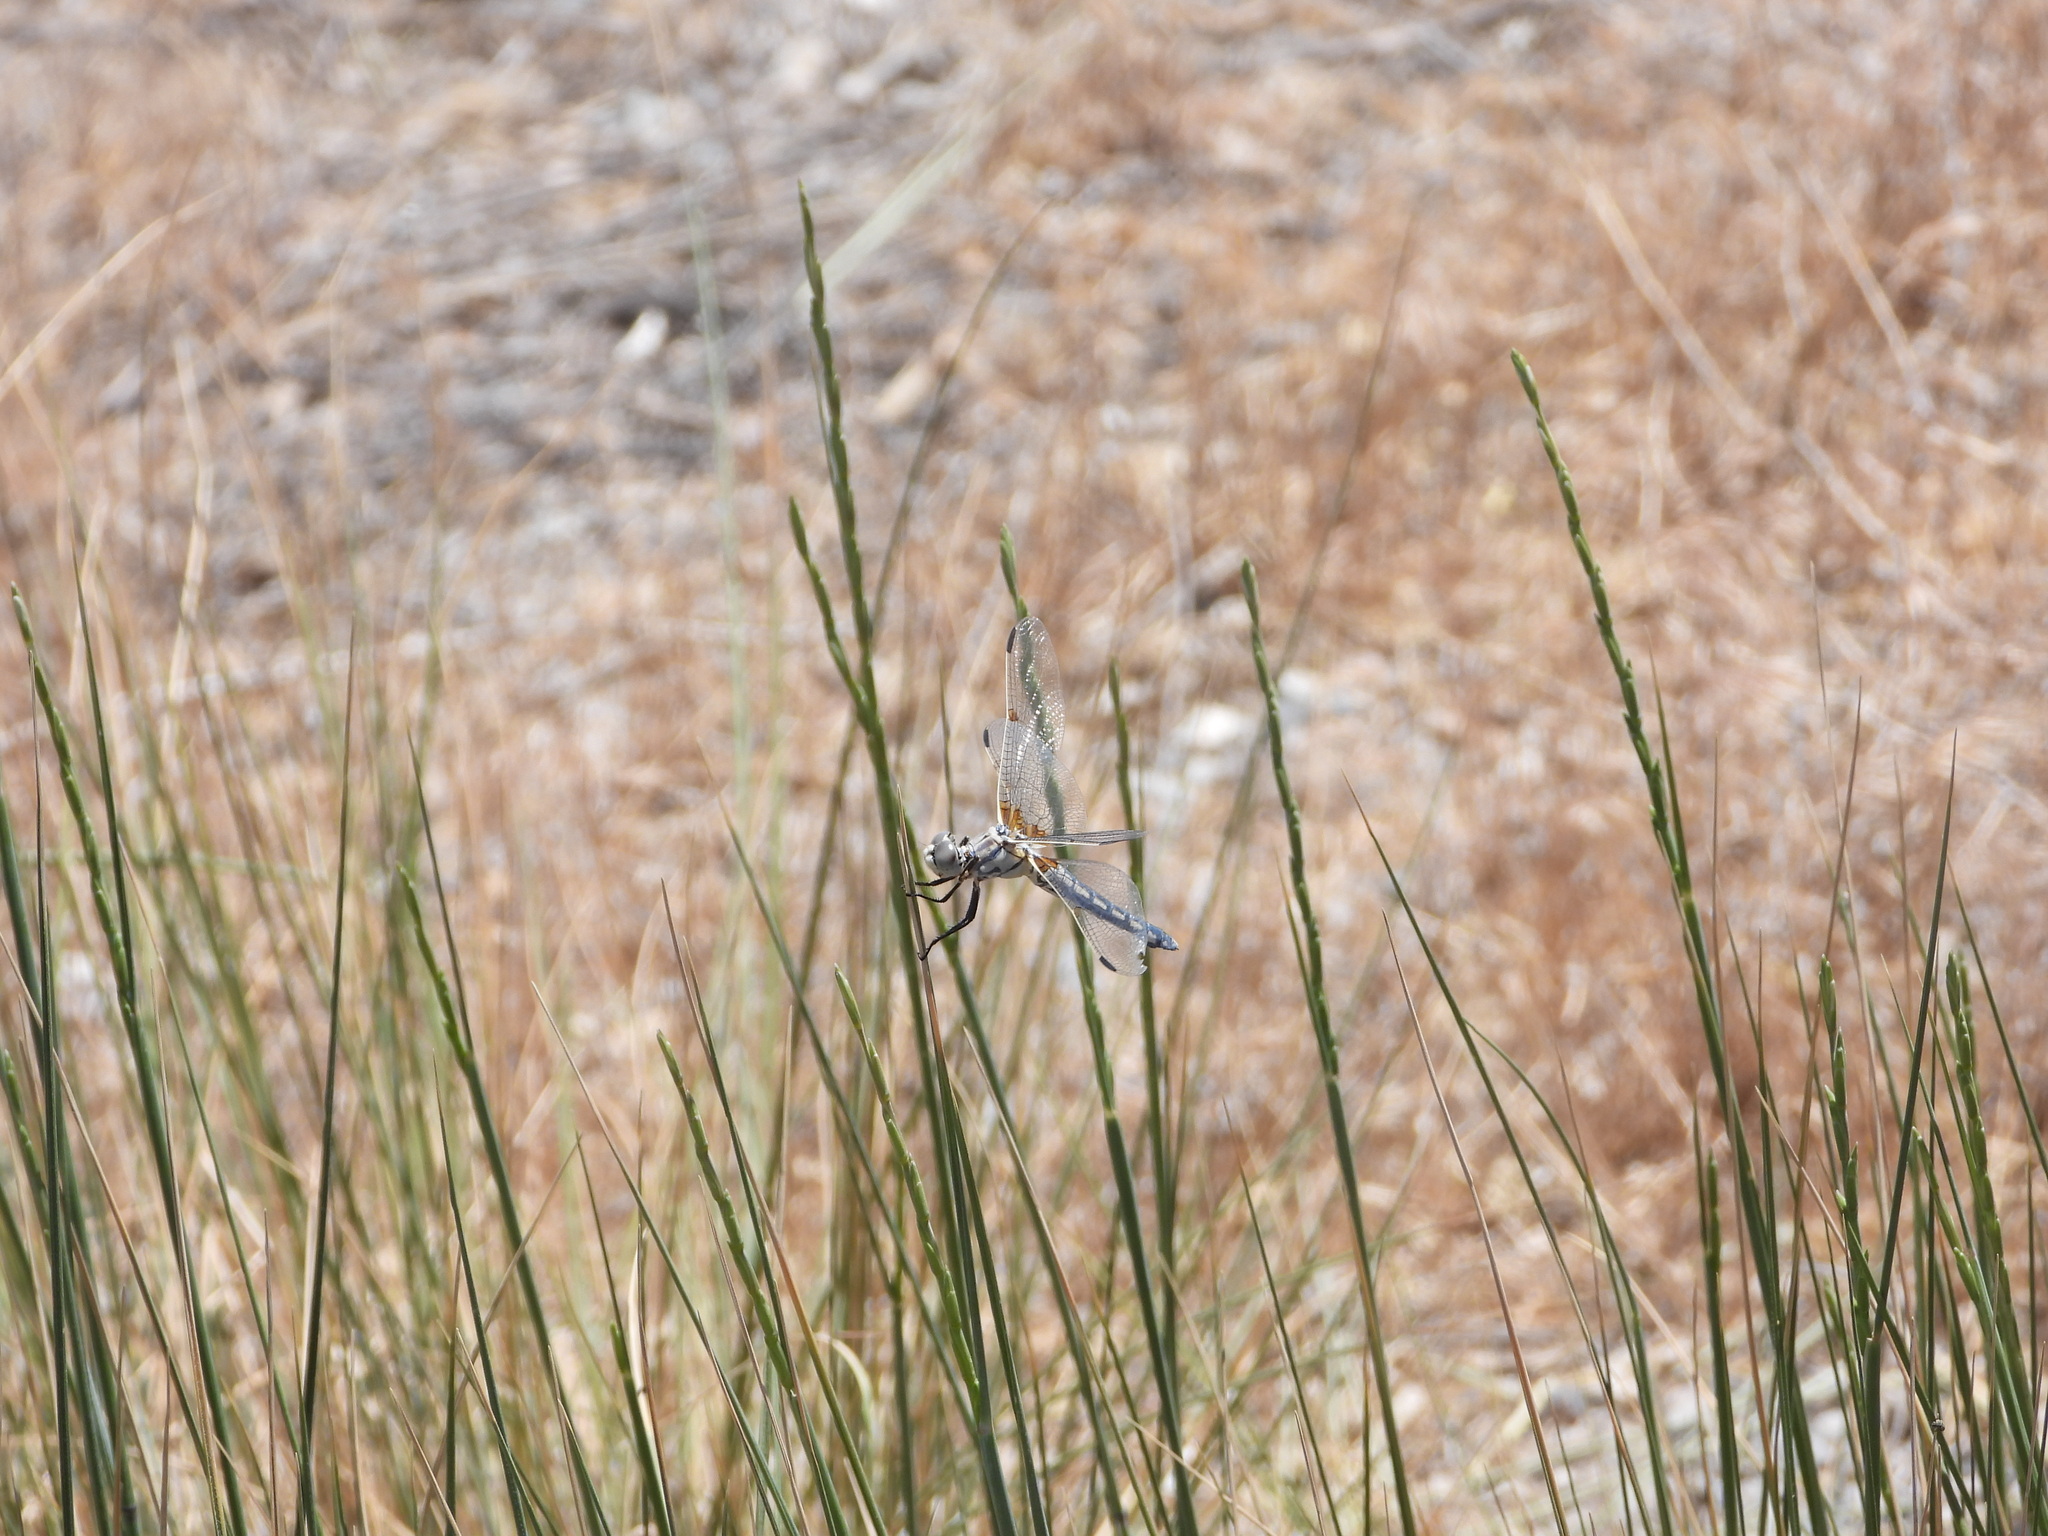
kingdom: Animalia
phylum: Arthropoda
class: Insecta
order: Odonata
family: Libellulidae
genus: Libellula
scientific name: Libellula composita
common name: Bleached skimmer
